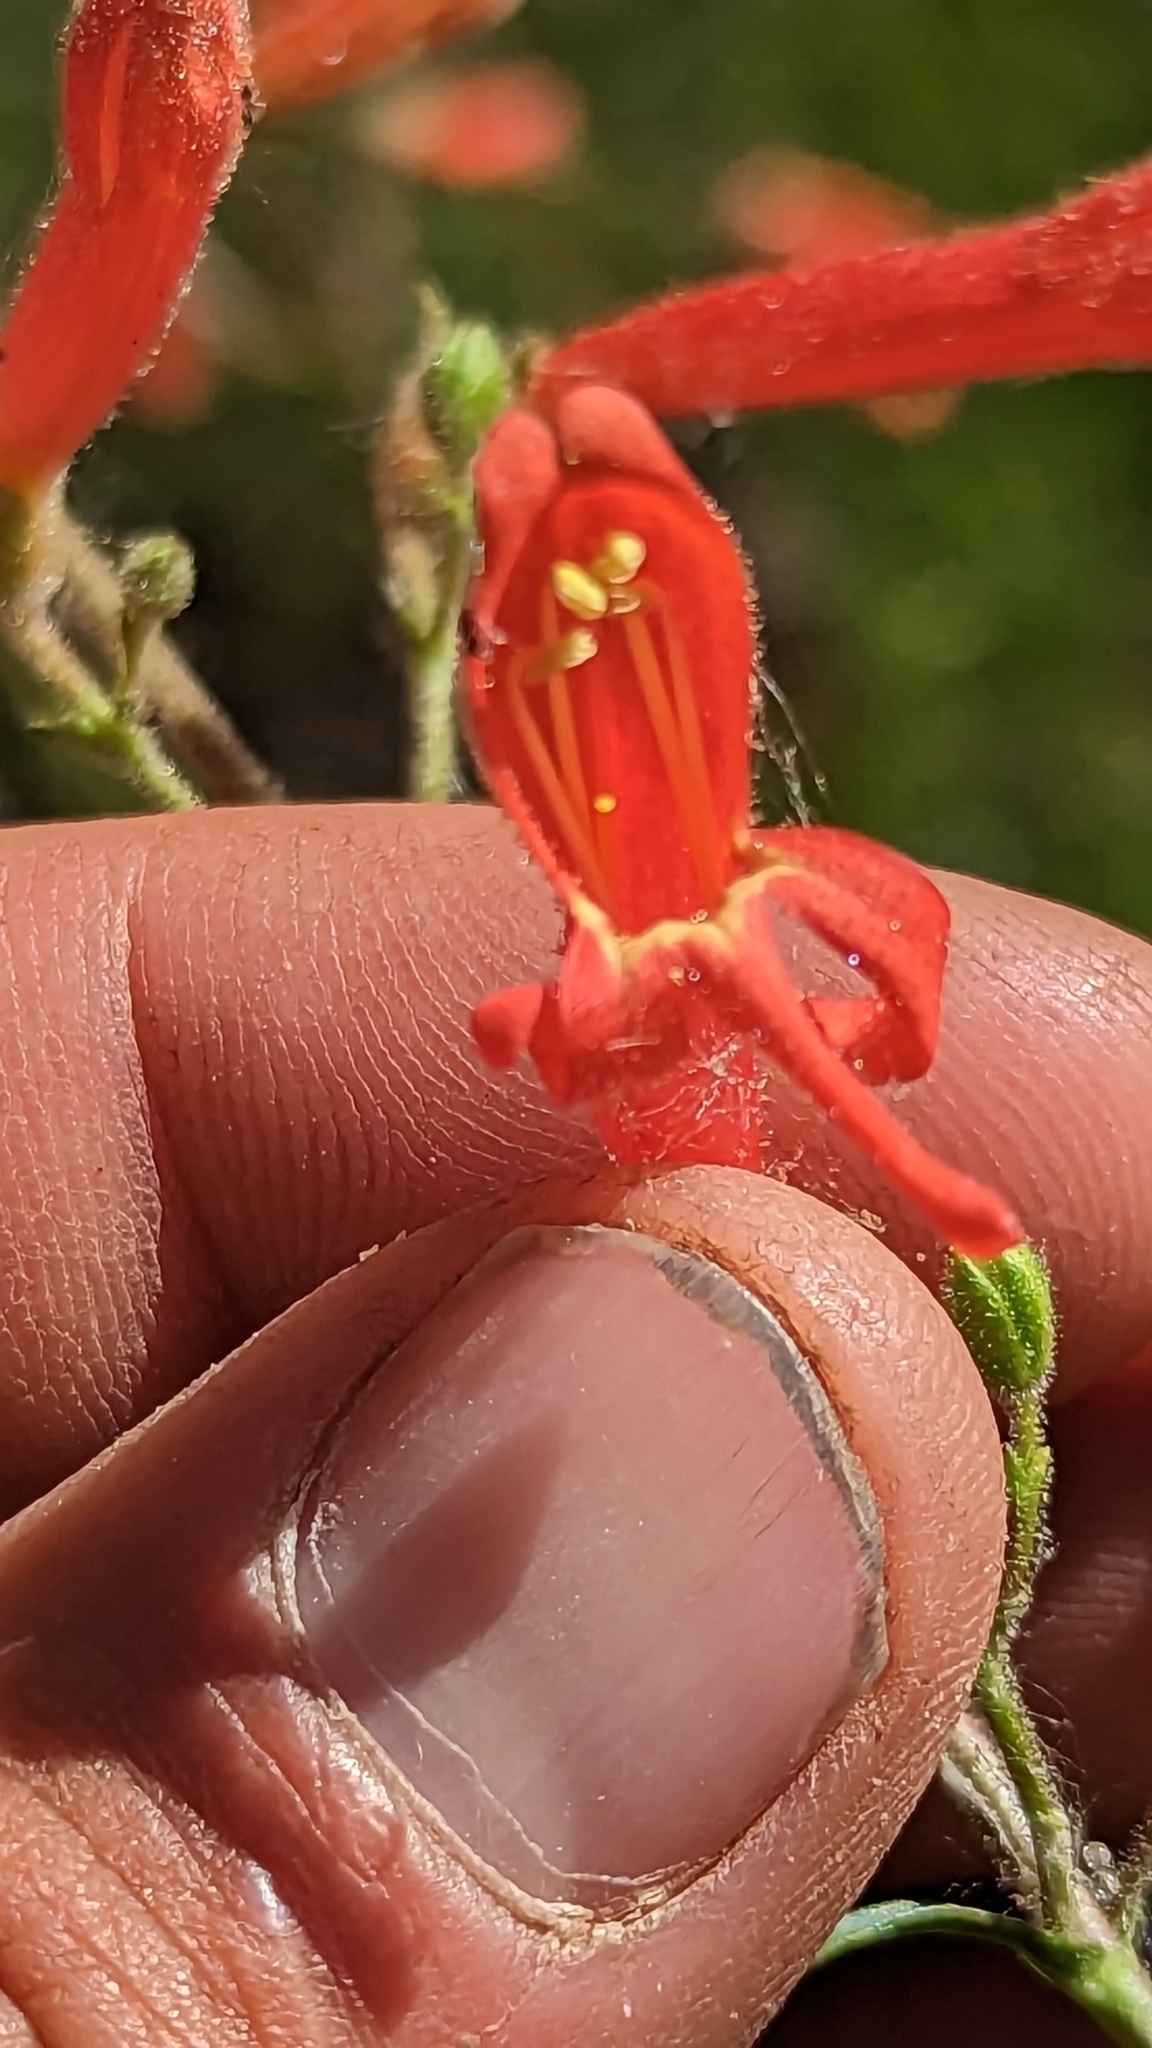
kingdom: Plantae
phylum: Tracheophyta
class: Magnoliopsida
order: Lamiales
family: Plantaginaceae
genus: Penstemon
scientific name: Penstemon rostriflorus
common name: Bridges's penstemon
